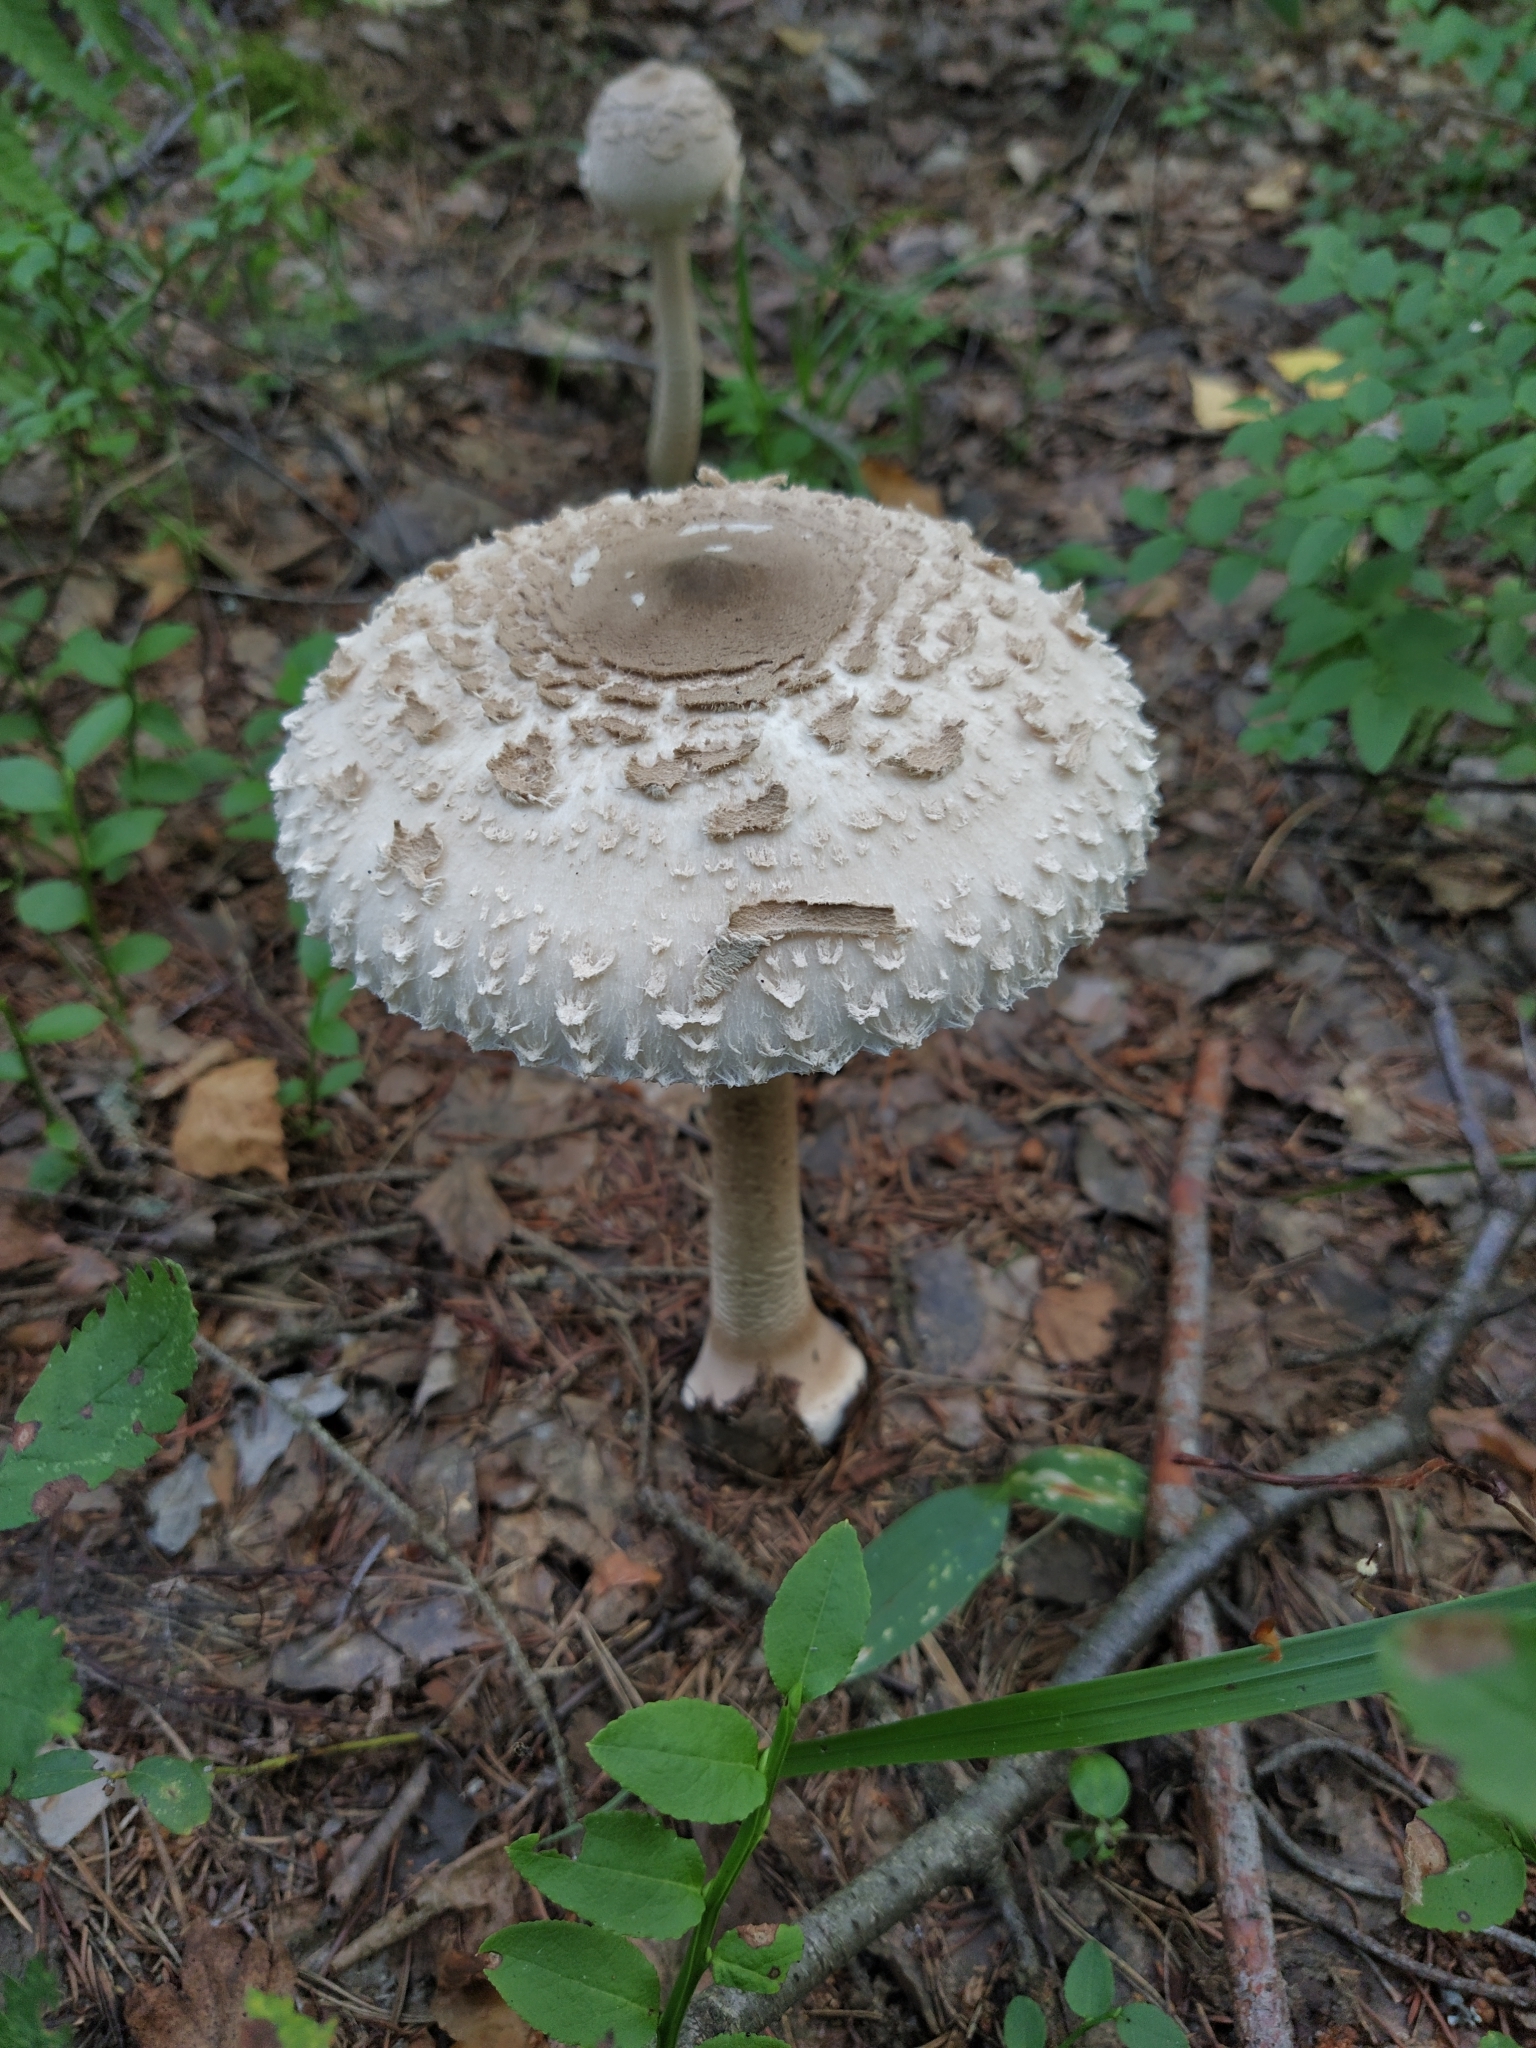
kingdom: Fungi
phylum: Basidiomycota
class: Agaricomycetes
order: Agaricales
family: Agaricaceae
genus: Macrolepiota
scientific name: Macrolepiota procera
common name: Parasol
